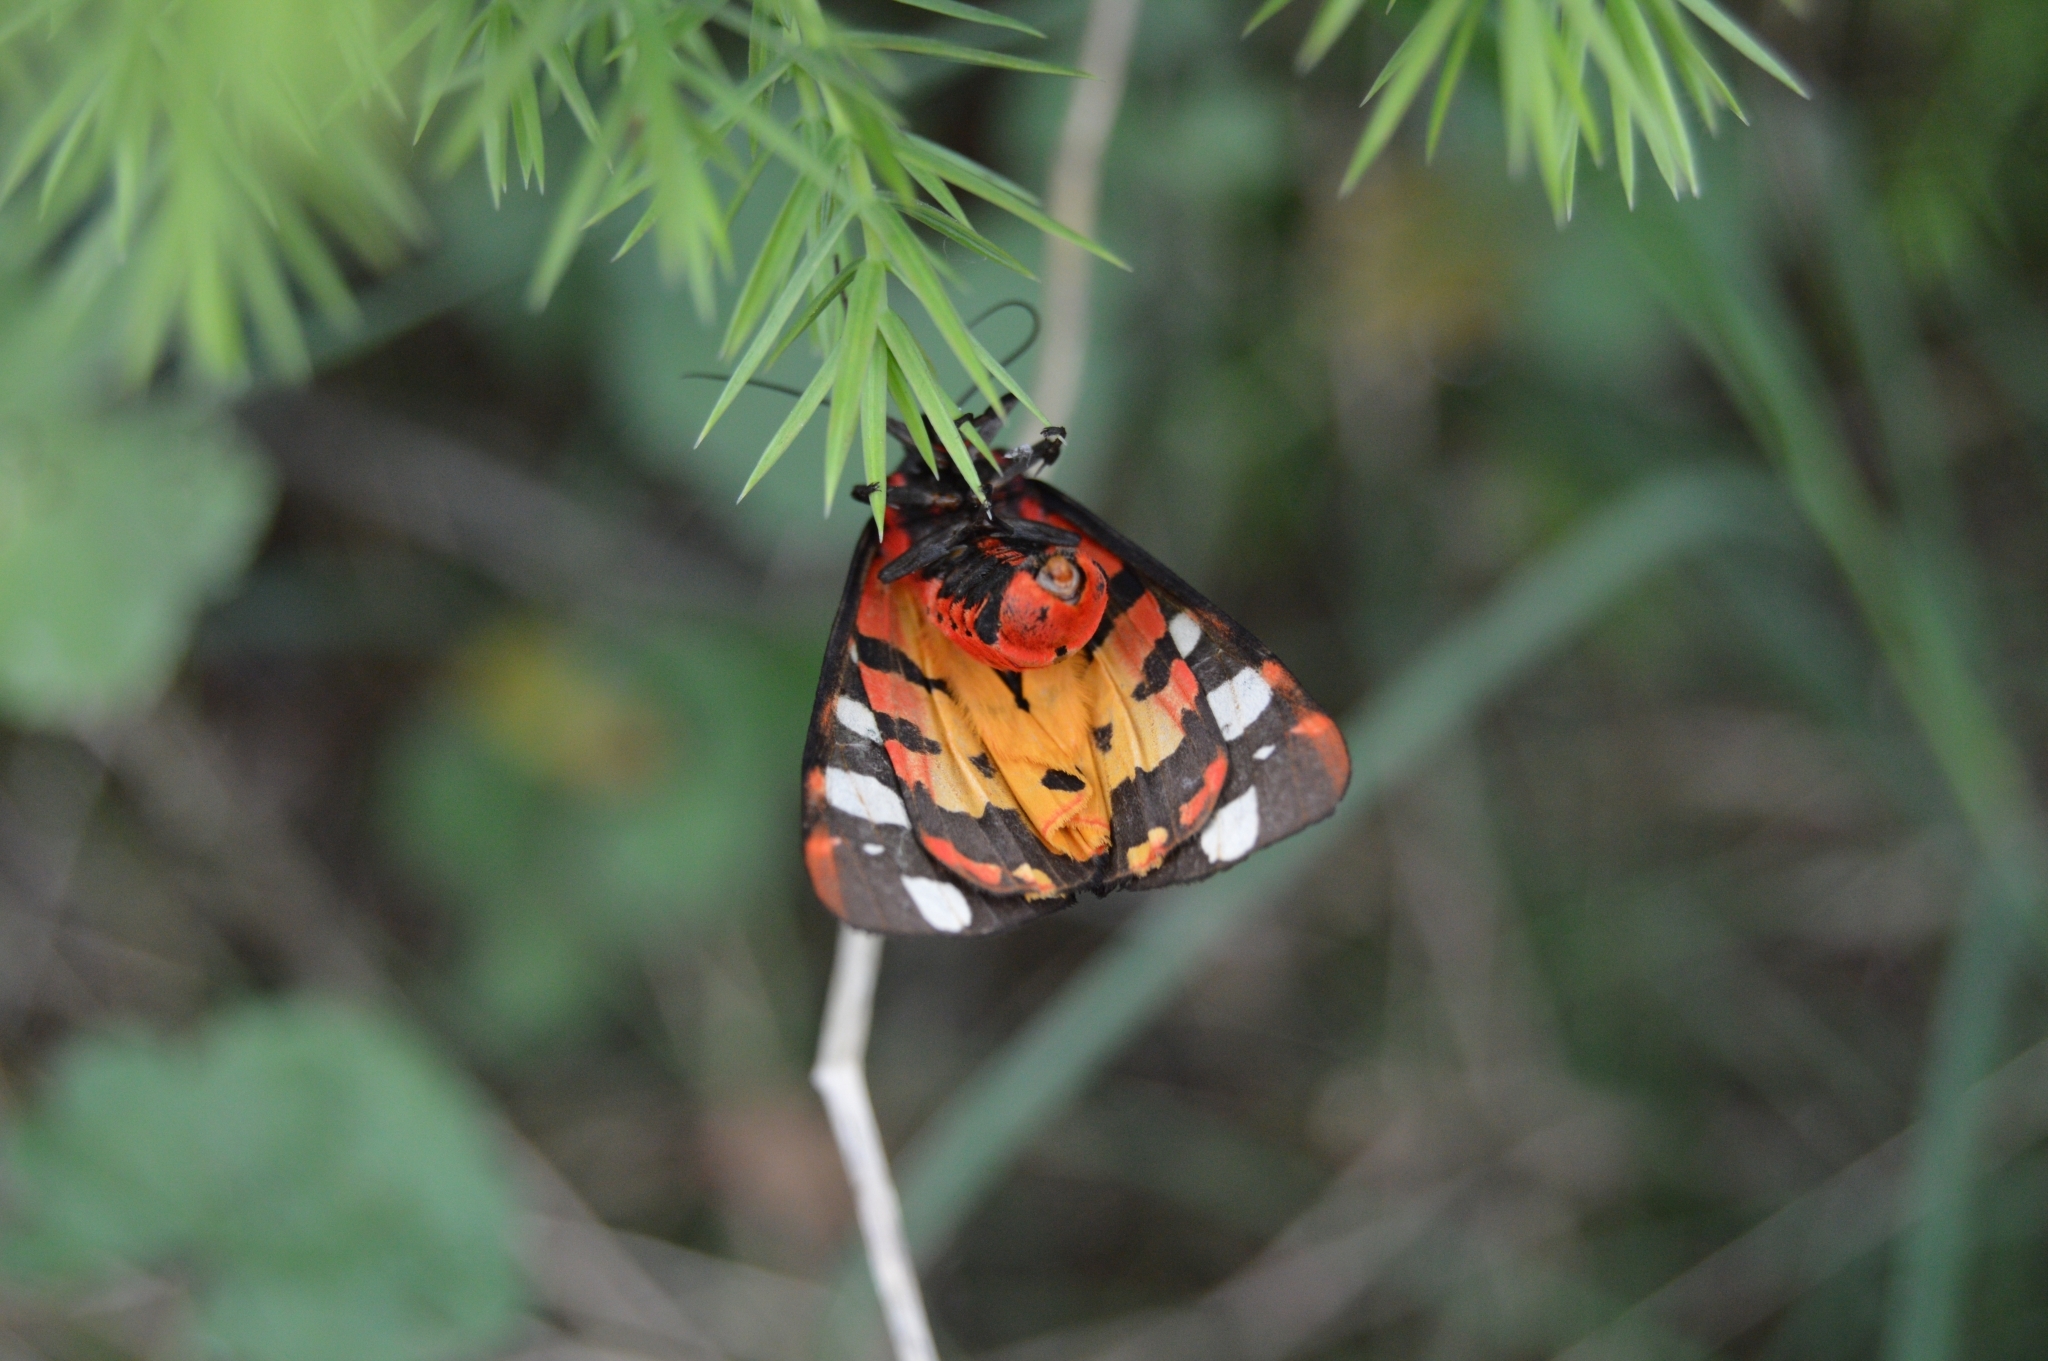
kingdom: Animalia
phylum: Arthropoda
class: Insecta
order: Lepidoptera
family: Erebidae
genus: Epicallia
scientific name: Epicallia villica
